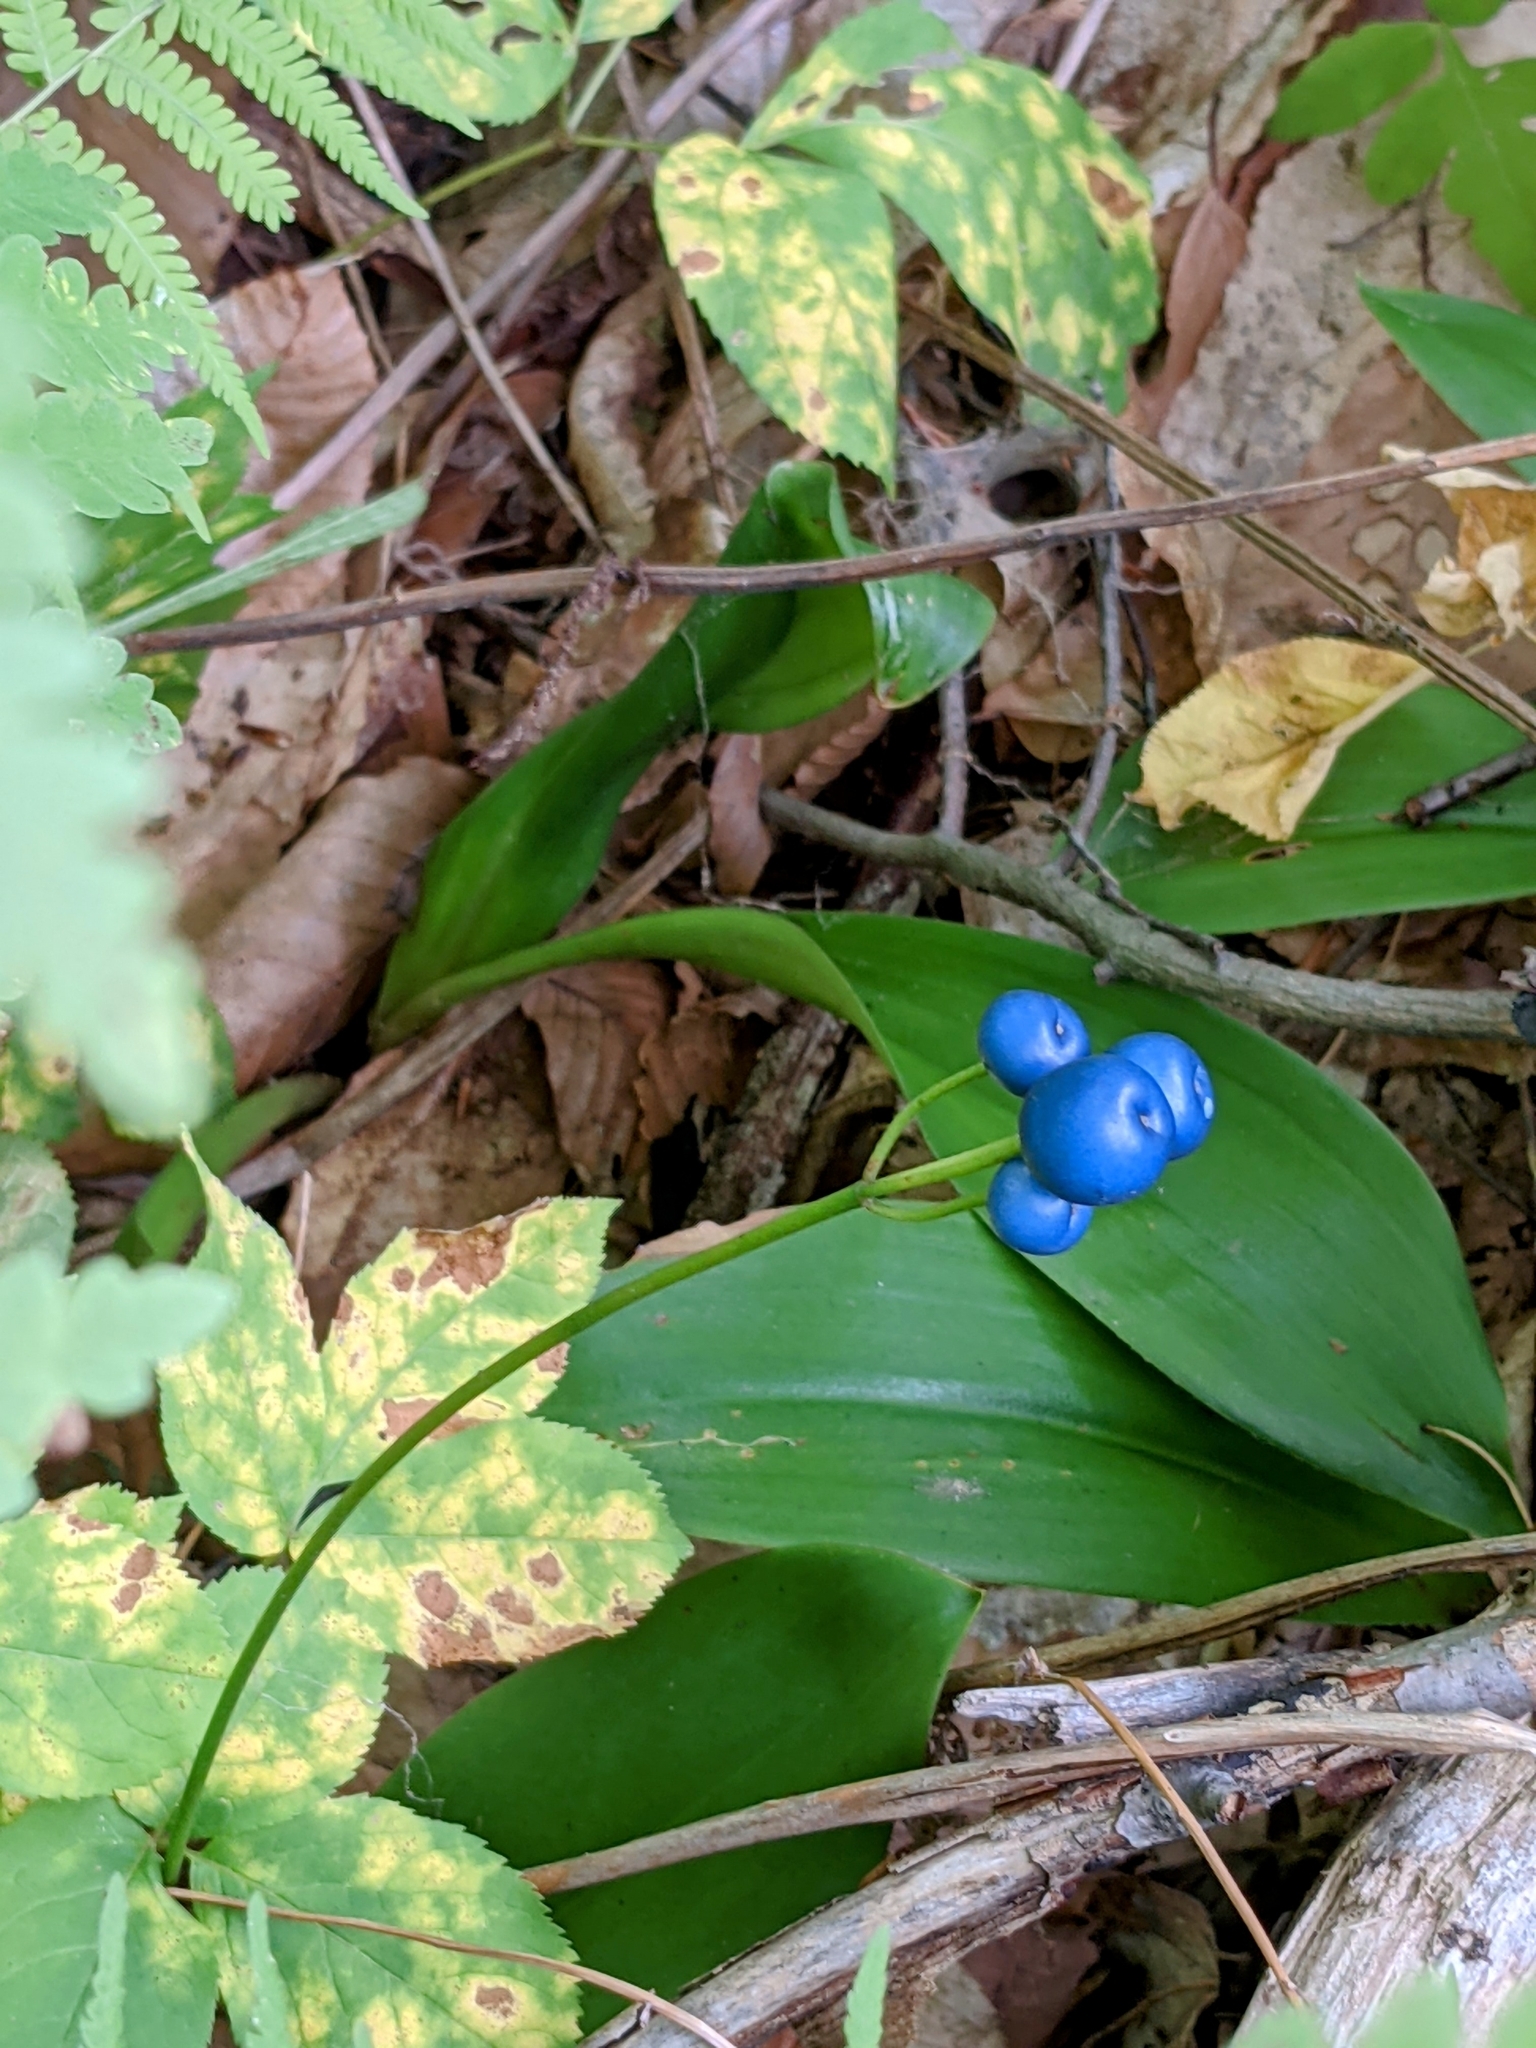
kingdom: Plantae
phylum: Tracheophyta
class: Liliopsida
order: Liliales
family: Liliaceae
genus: Clintonia
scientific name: Clintonia borealis
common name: Yellow clintonia
